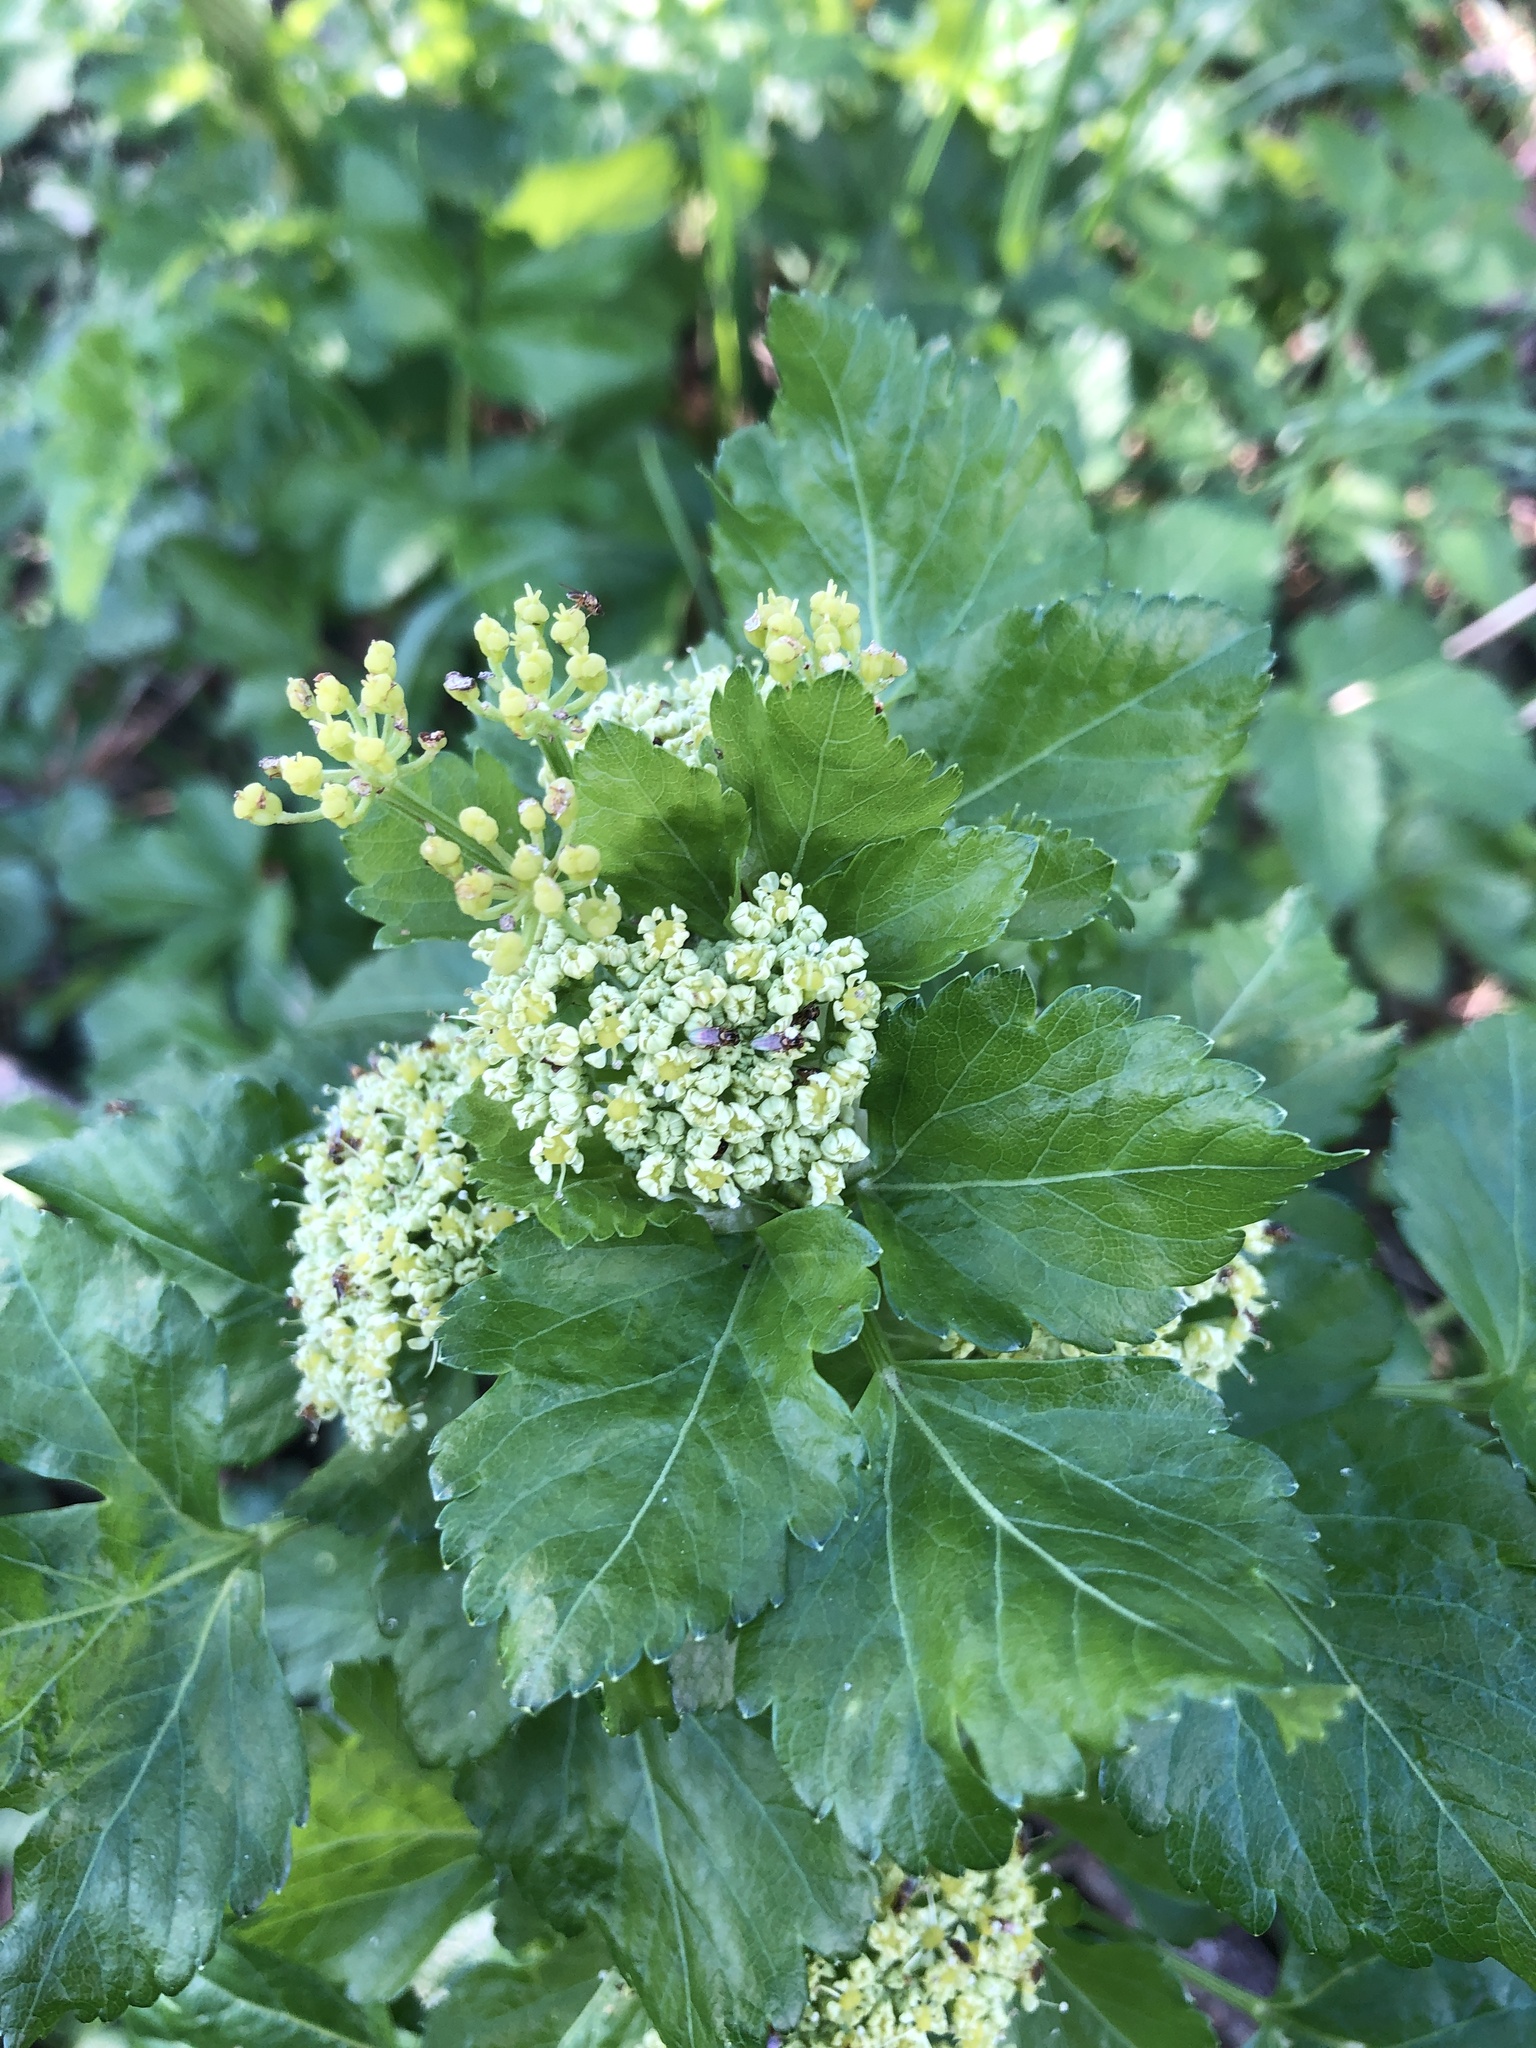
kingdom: Plantae
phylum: Tracheophyta
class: Magnoliopsida
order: Apiales
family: Apiaceae
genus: Smyrnium
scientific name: Smyrnium olusatrum
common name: Alexanders
